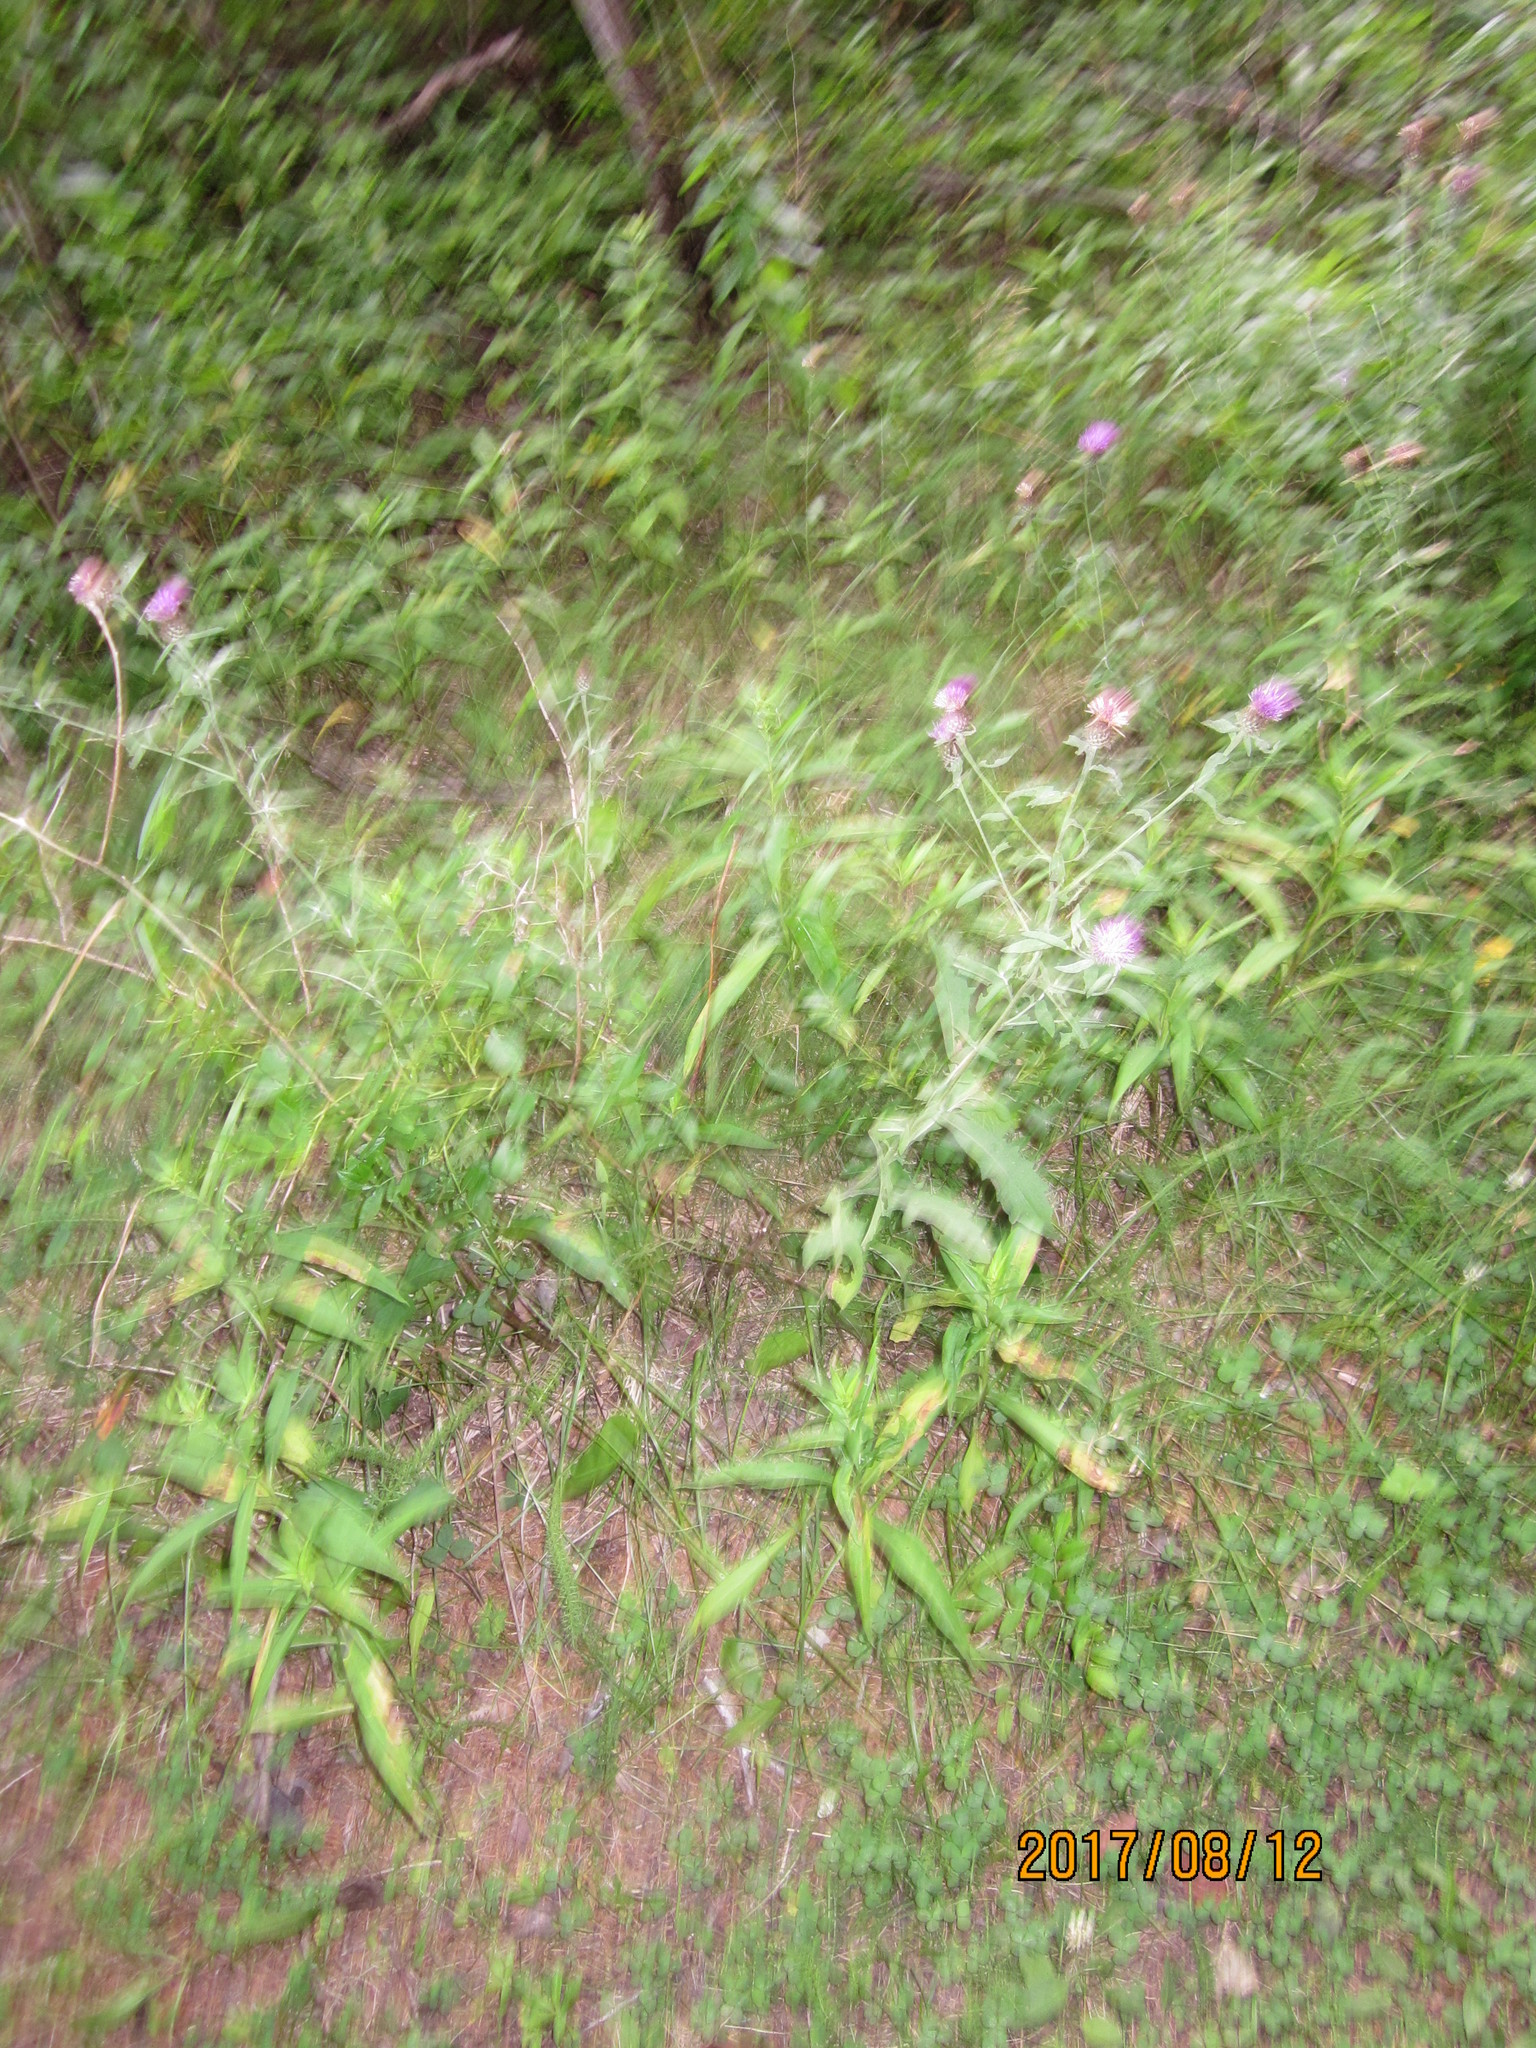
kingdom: Plantae
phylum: Tracheophyta
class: Magnoliopsida
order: Asterales
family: Asteraceae
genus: Centaurea
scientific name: Centaurea nigra
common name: Lesser knapweed
